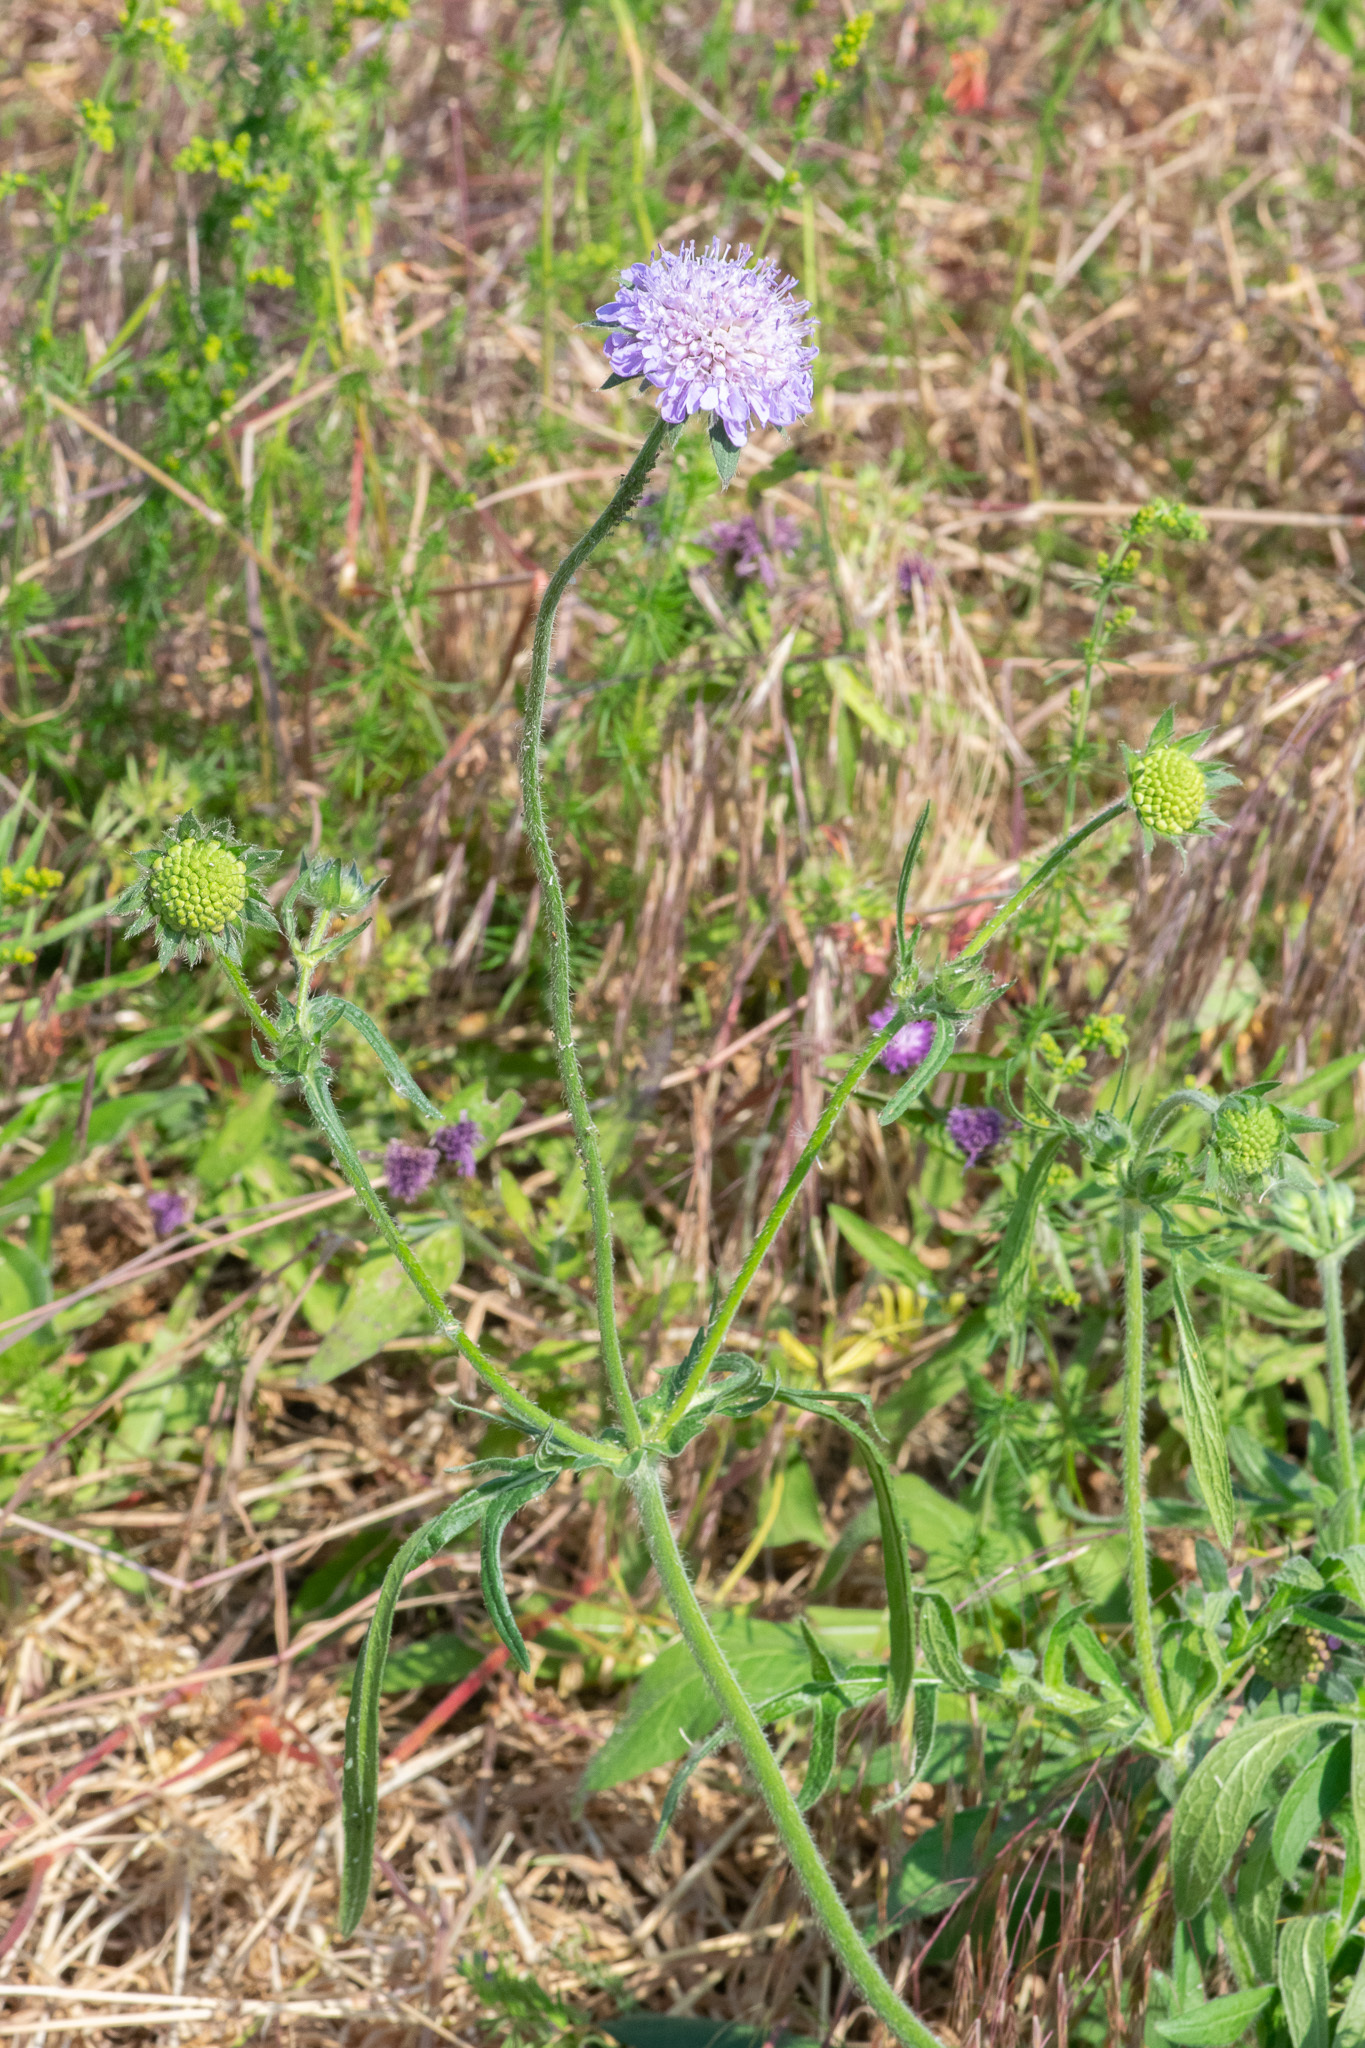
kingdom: Plantae
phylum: Tracheophyta
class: Magnoliopsida
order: Dipsacales
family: Caprifoliaceae
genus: Knautia
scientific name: Knautia arvensis
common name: Field scabiosa
